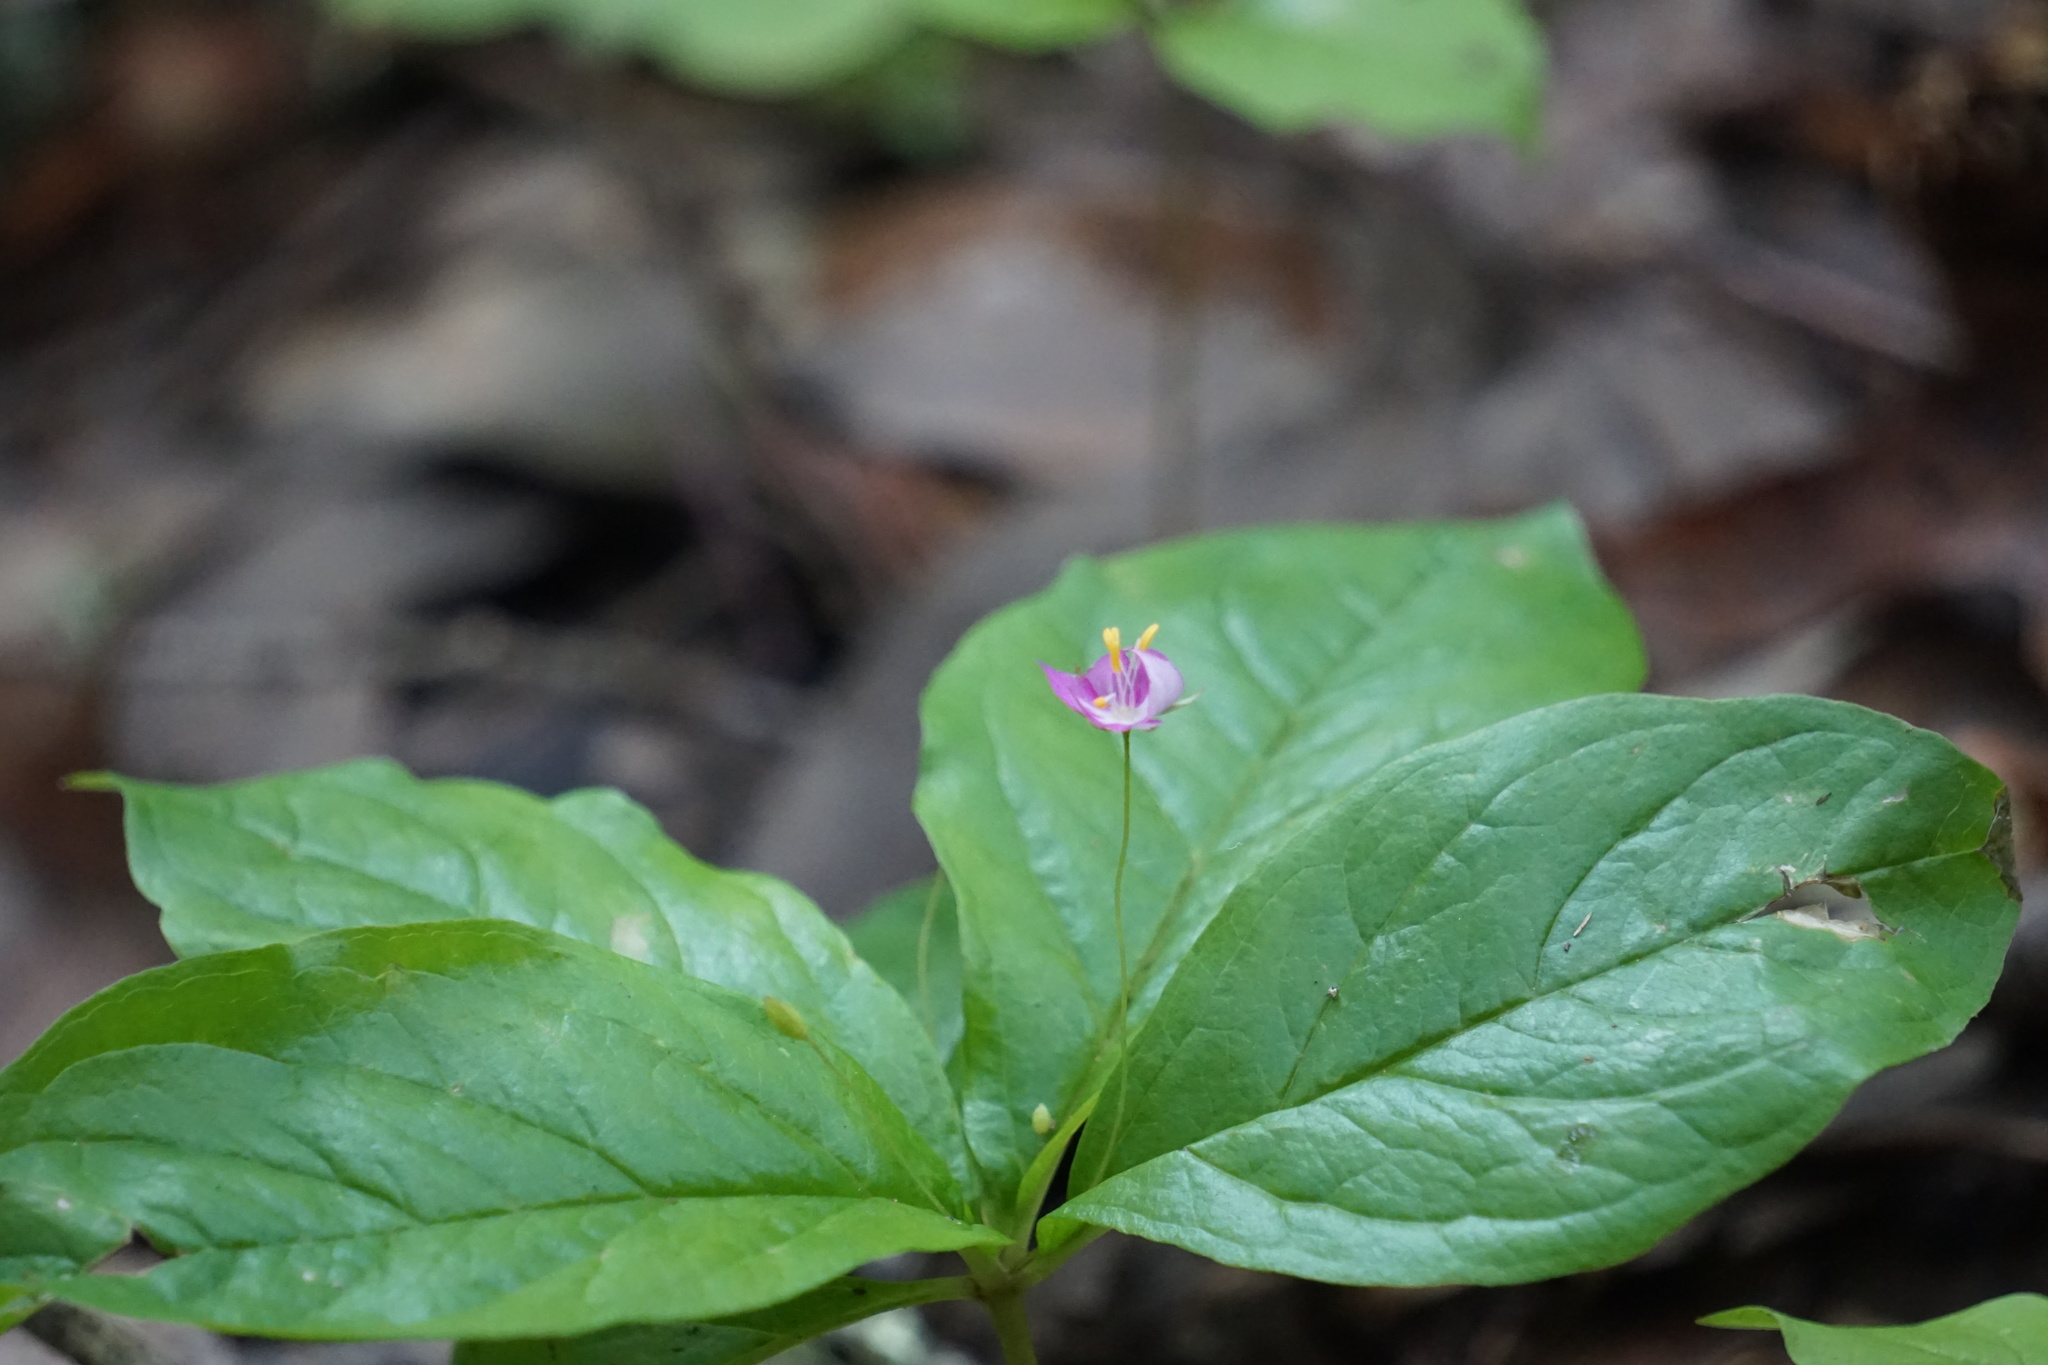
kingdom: Plantae
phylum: Tracheophyta
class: Magnoliopsida
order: Ericales
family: Primulaceae
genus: Lysimachia
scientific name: Lysimachia latifolia
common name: Pacific starflower
